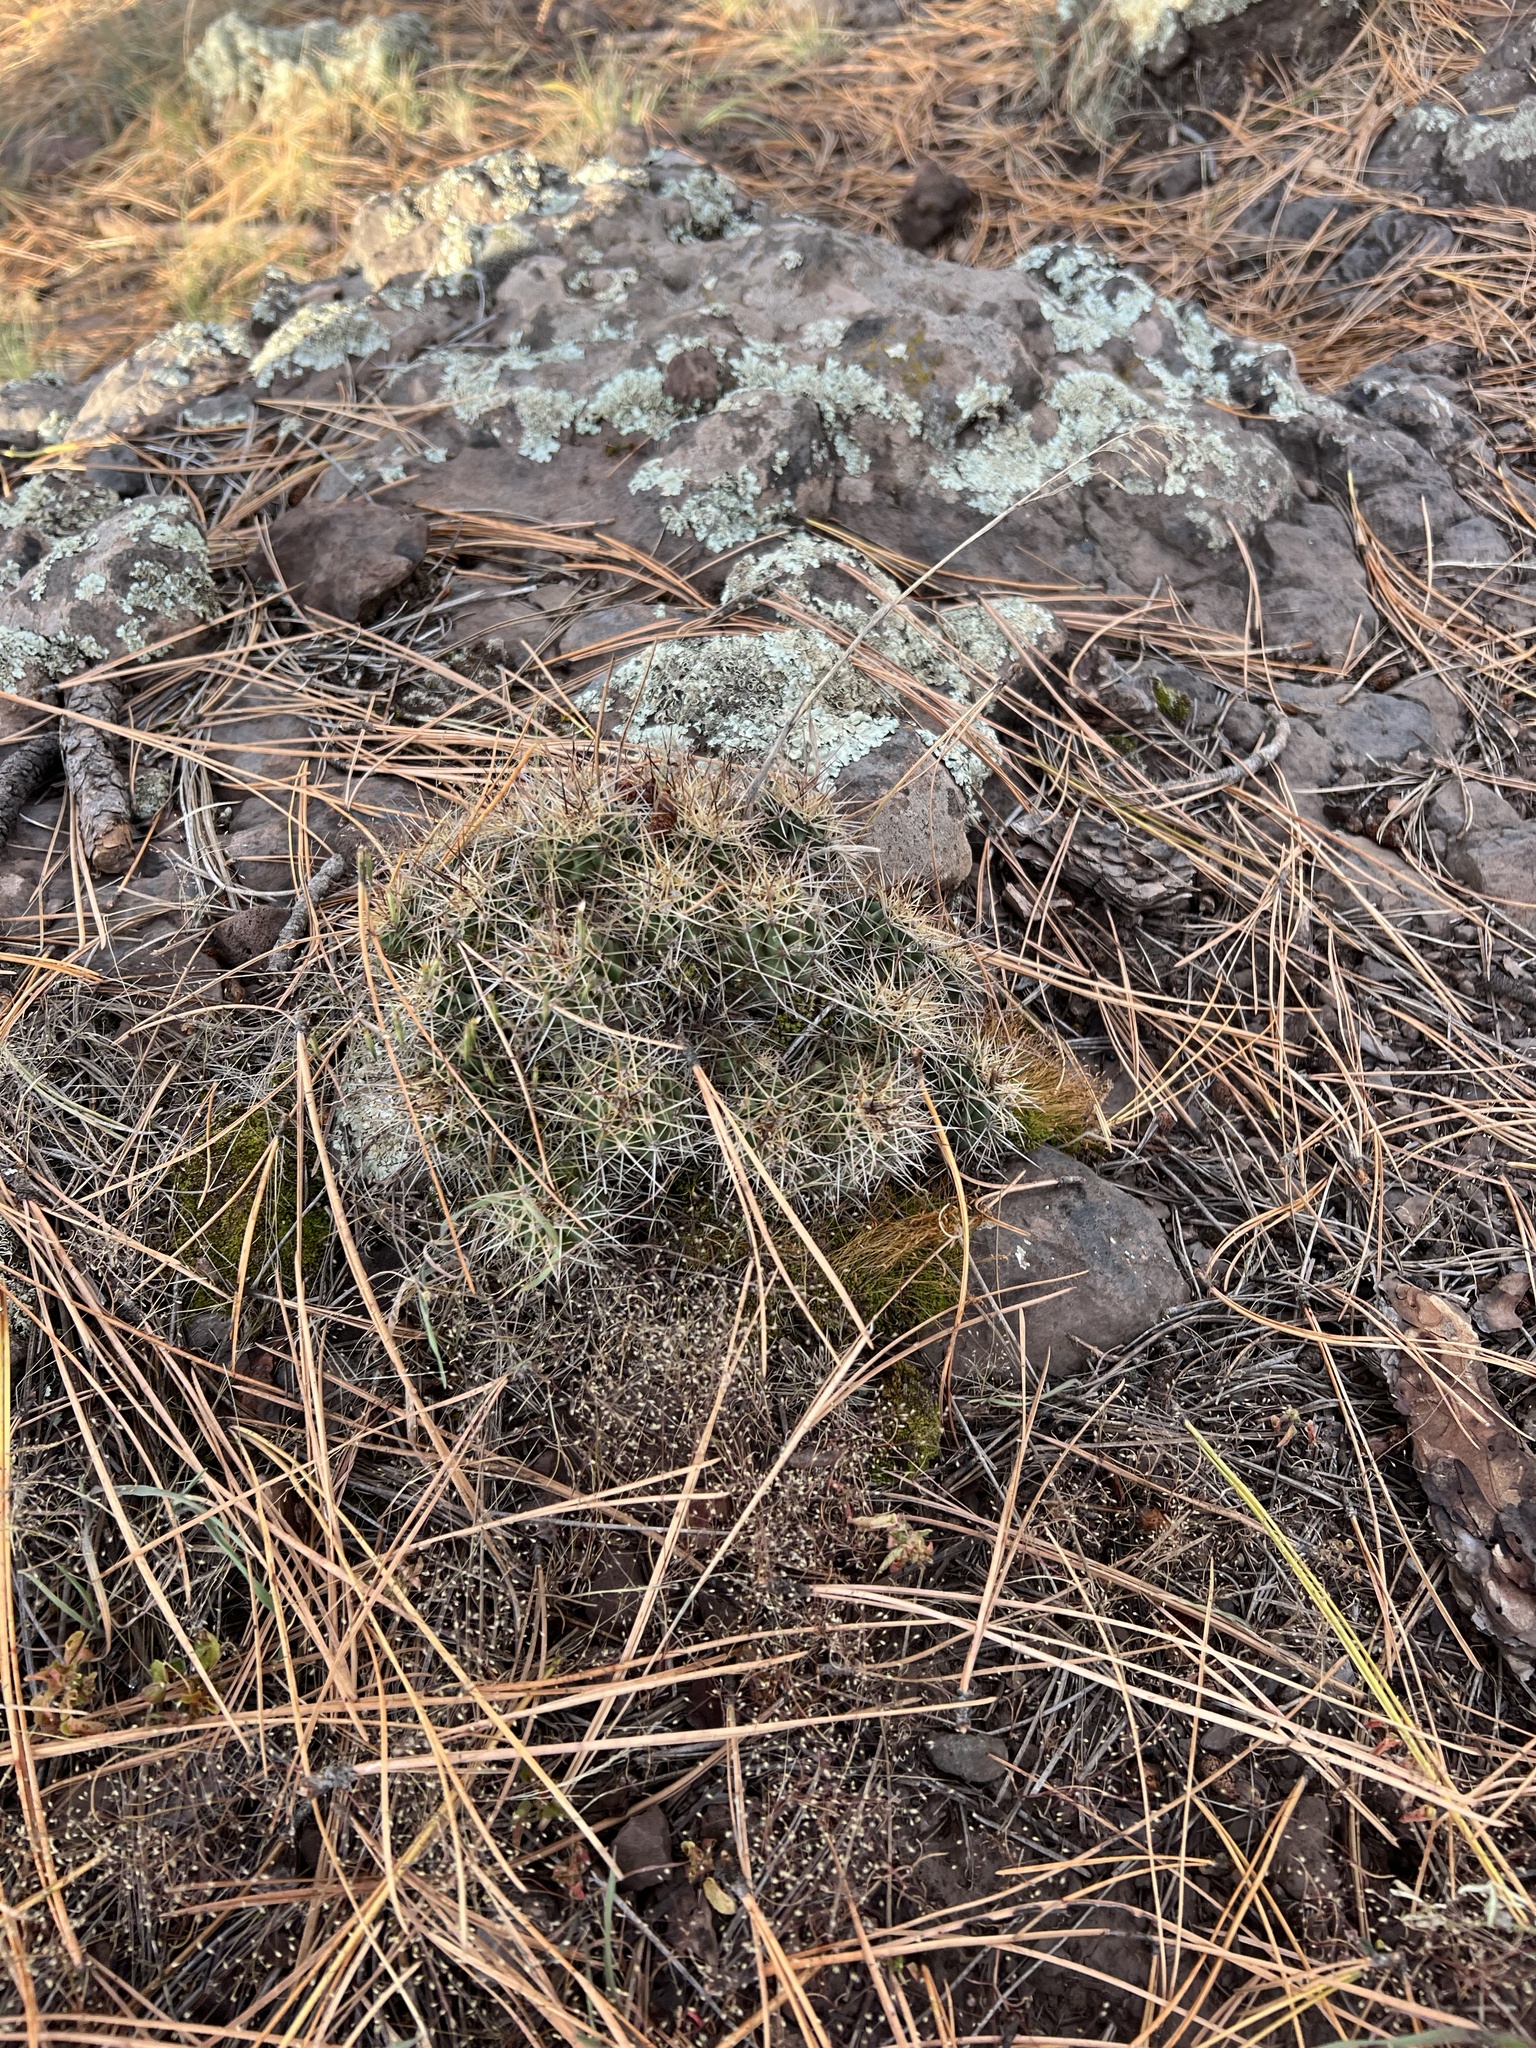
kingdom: Plantae
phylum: Tracheophyta
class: Magnoliopsida
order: Caryophyllales
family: Cactaceae
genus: Echinocereus
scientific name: Echinocereus bakeri
